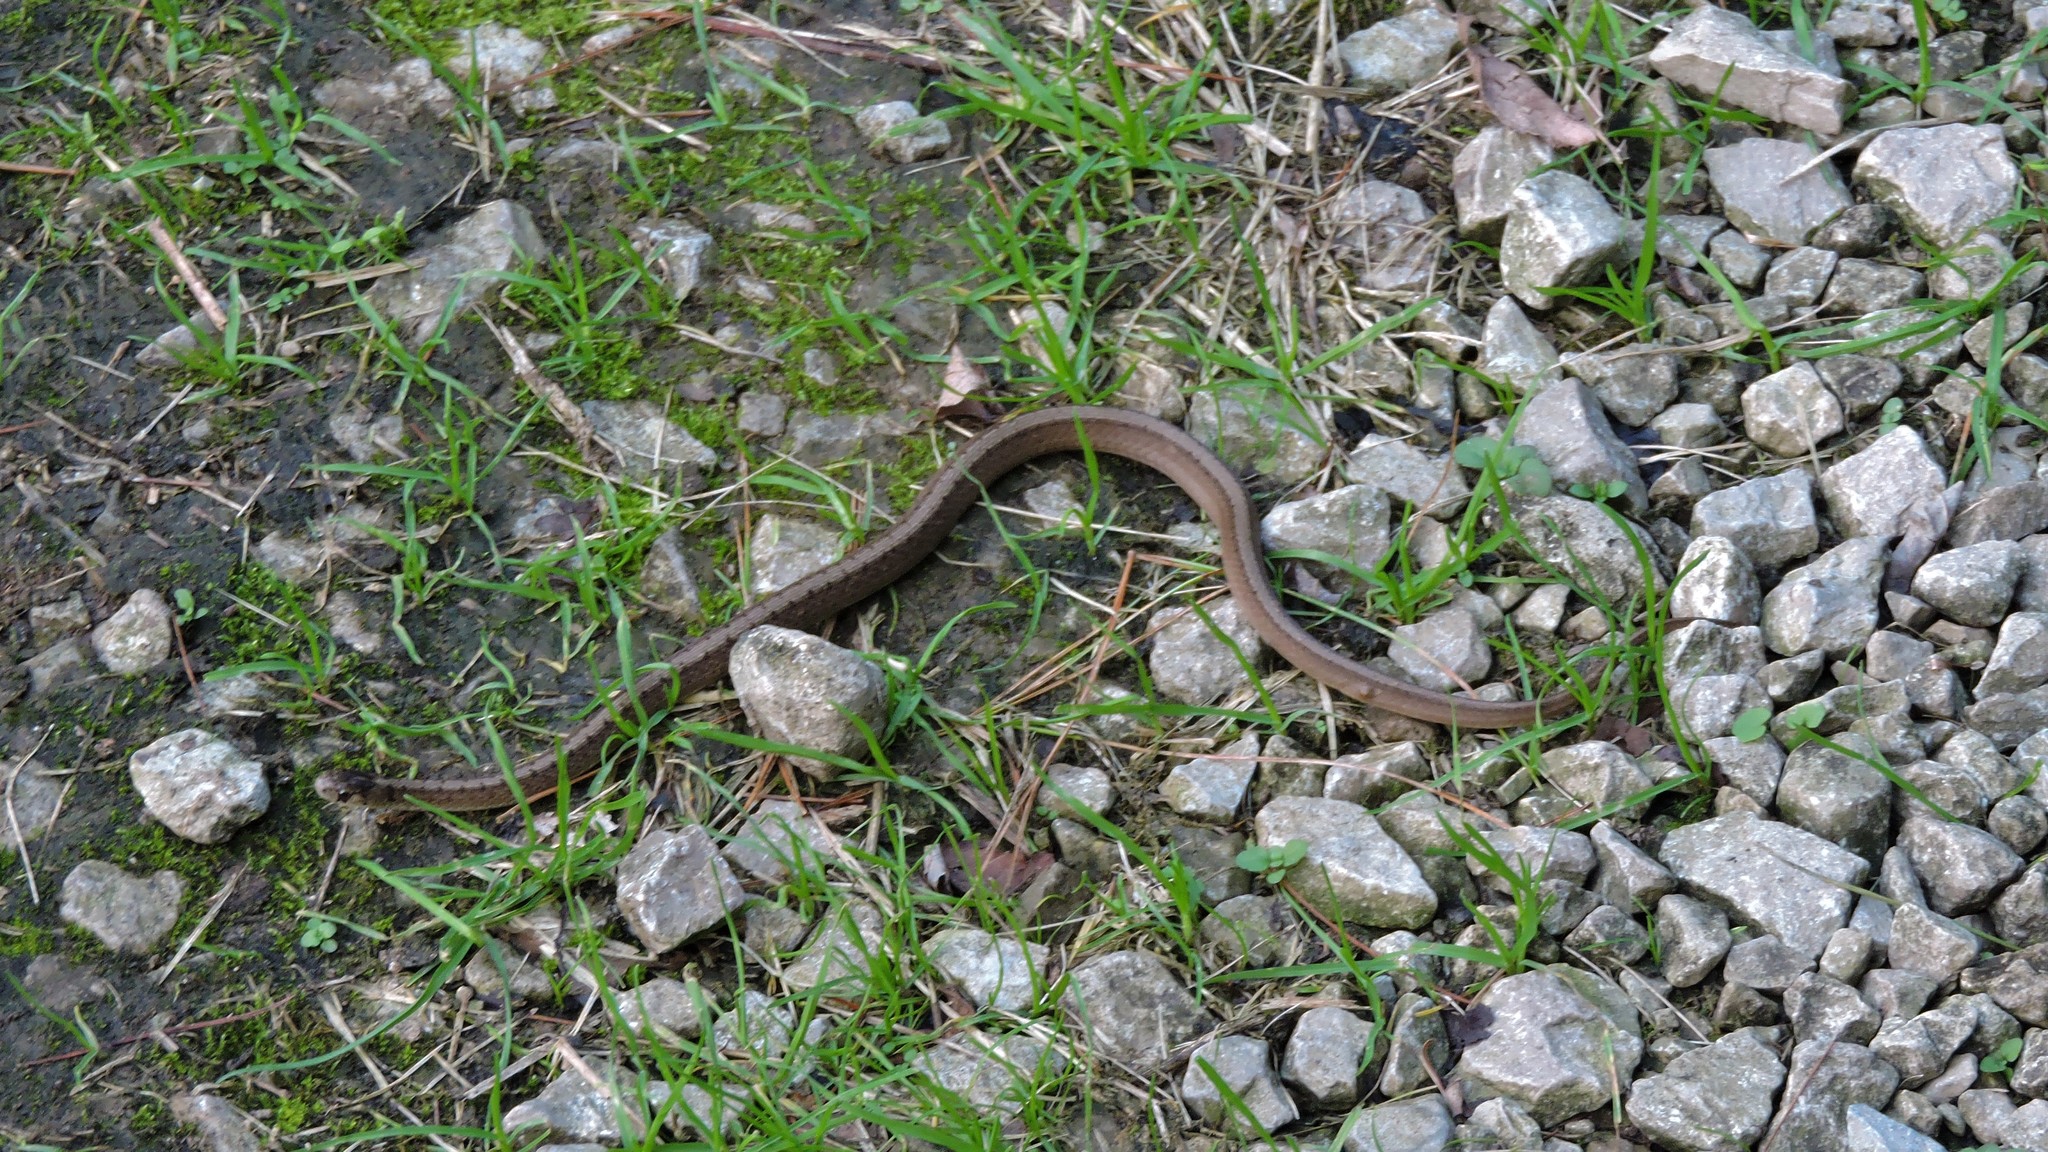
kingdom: Animalia
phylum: Chordata
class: Squamata
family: Colubridae
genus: Storeria
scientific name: Storeria dekayi
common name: (dekay’s) brown snake
